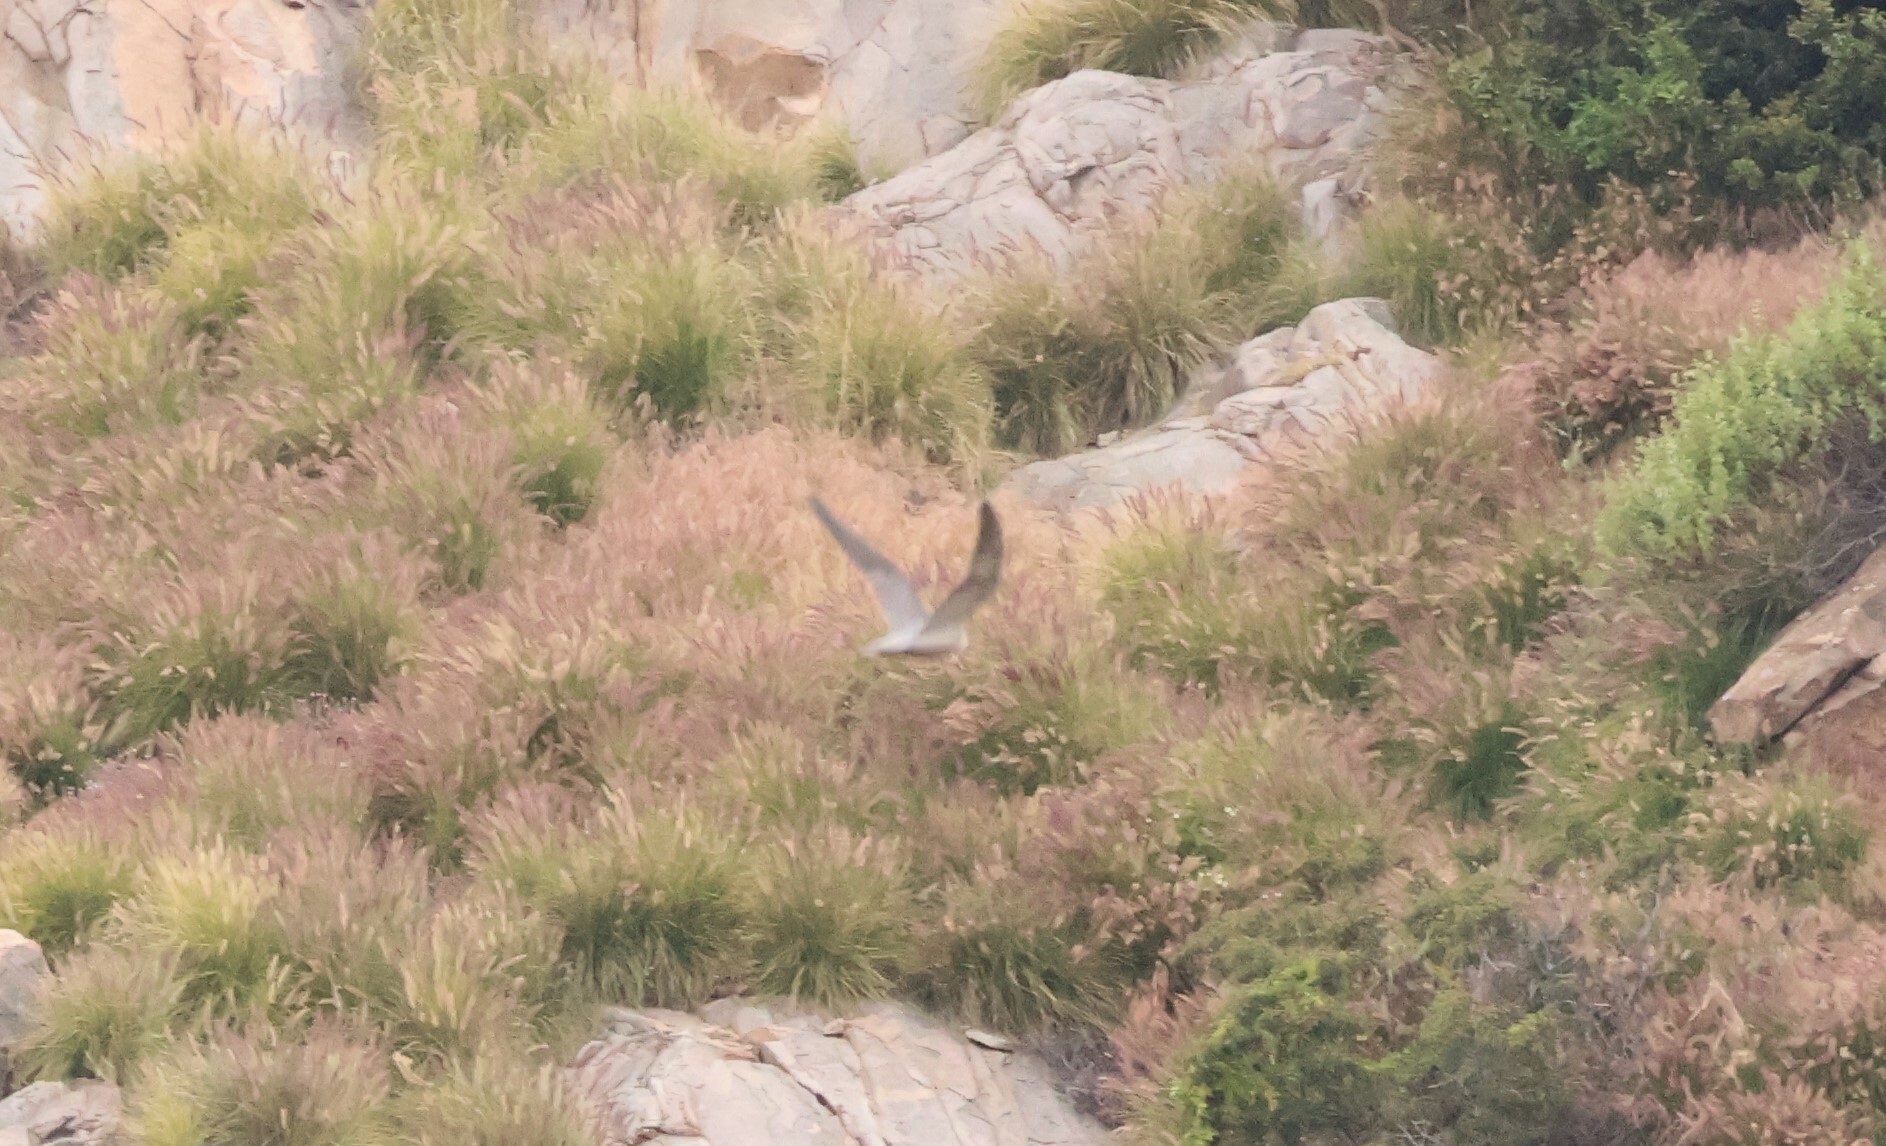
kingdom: Animalia
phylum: Chordata
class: Aves
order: Falconiformes
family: Falconidae
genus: Falco
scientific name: Falco peregrinus
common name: Peregrine falcon
